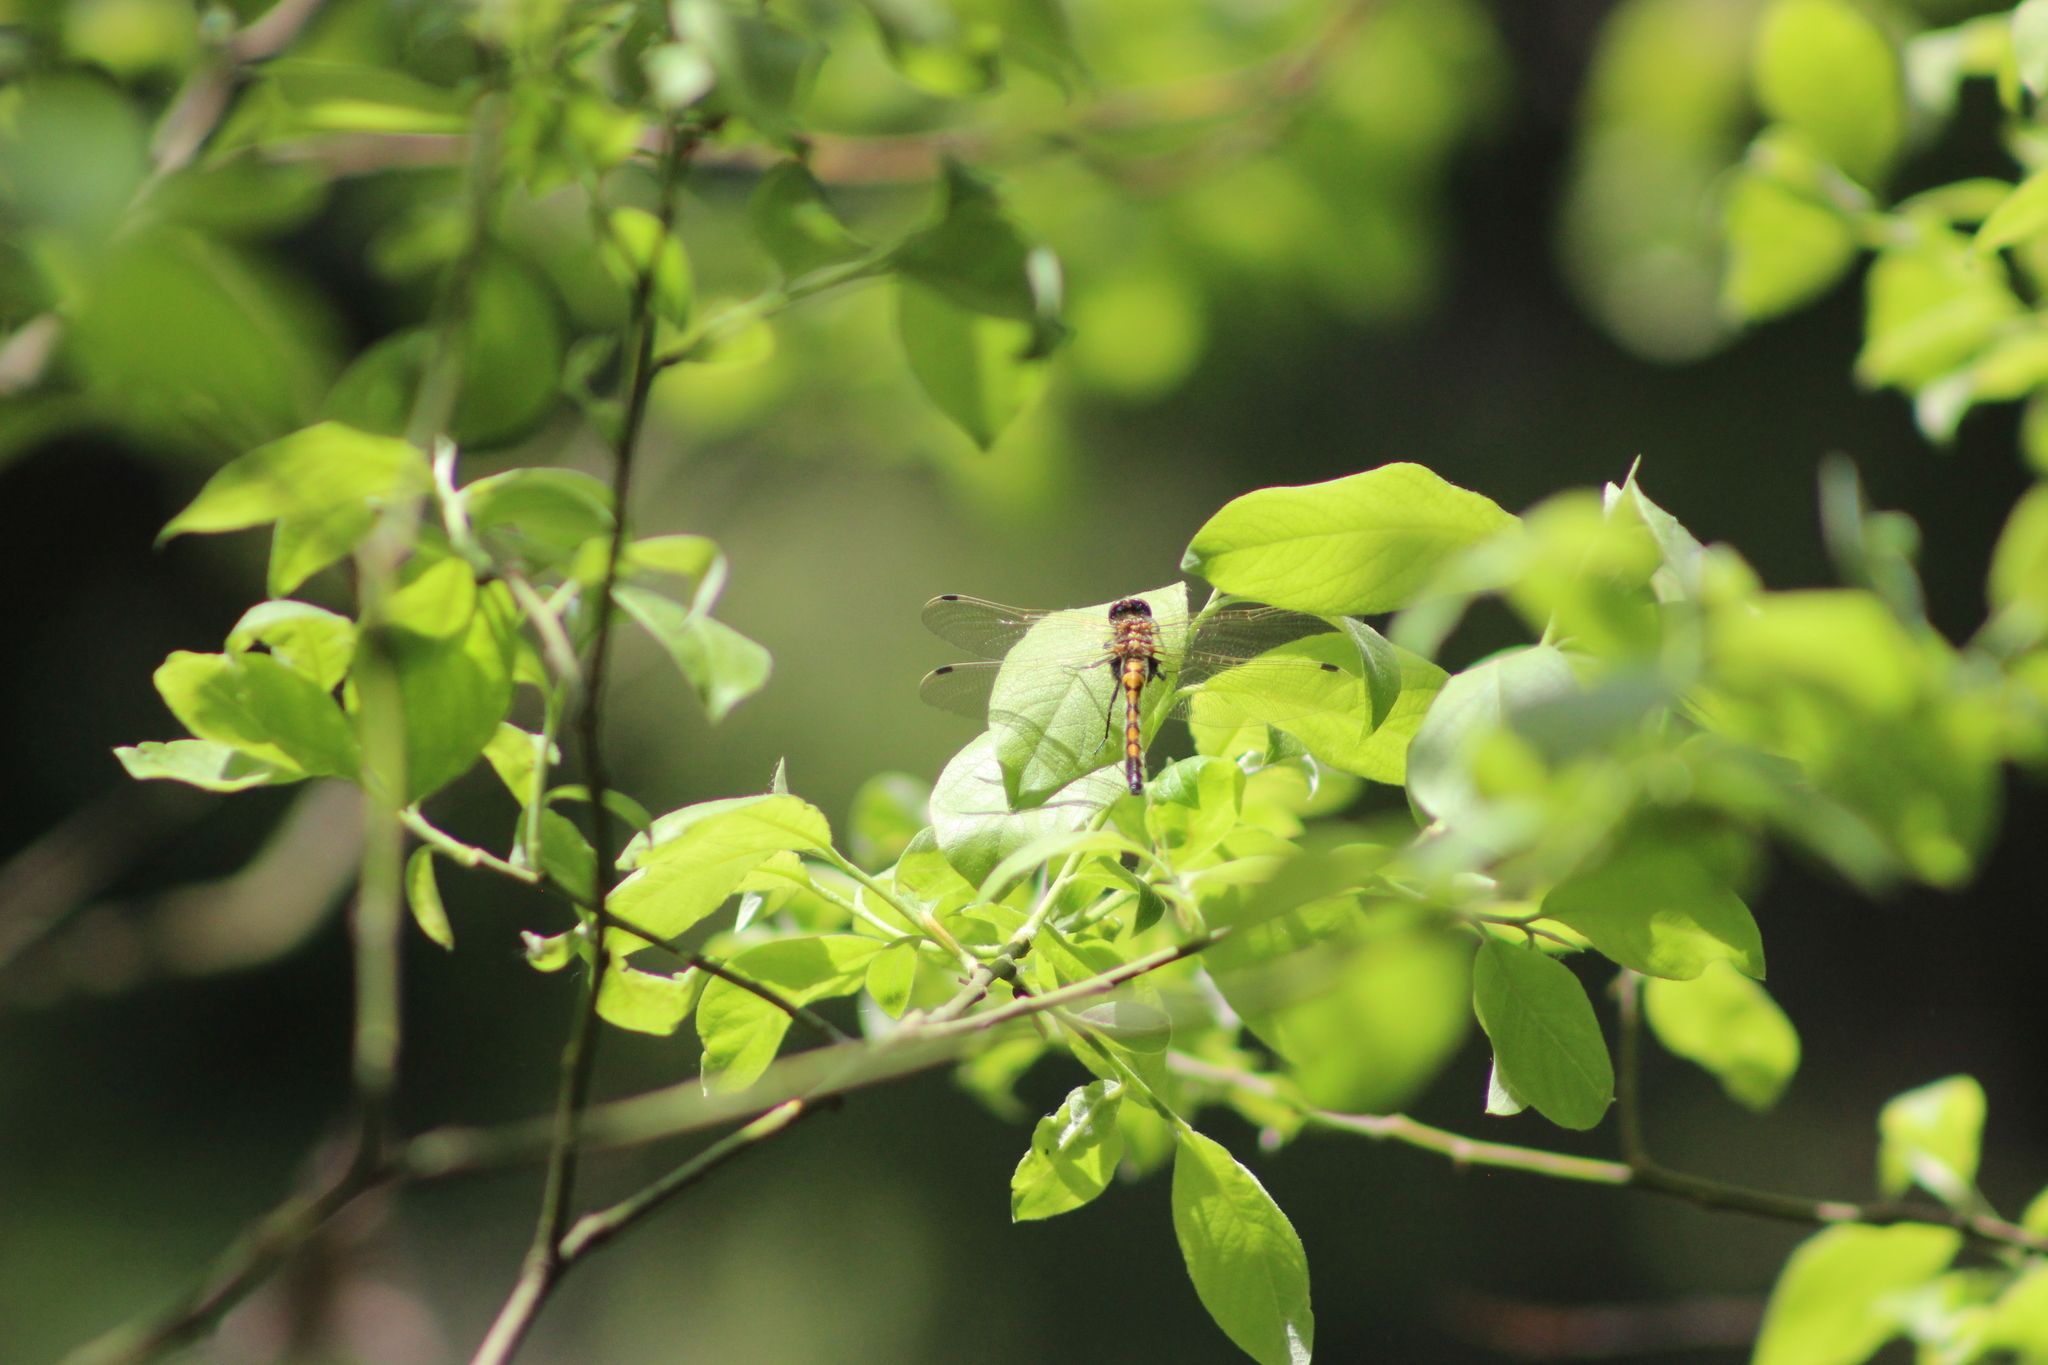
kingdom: Animalia
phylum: Arthropoda
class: Insecta
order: Odonata
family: Libellulidae
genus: Leucorrhinia
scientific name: Leucorrhinia rubicunda
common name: Ruby whiteface
